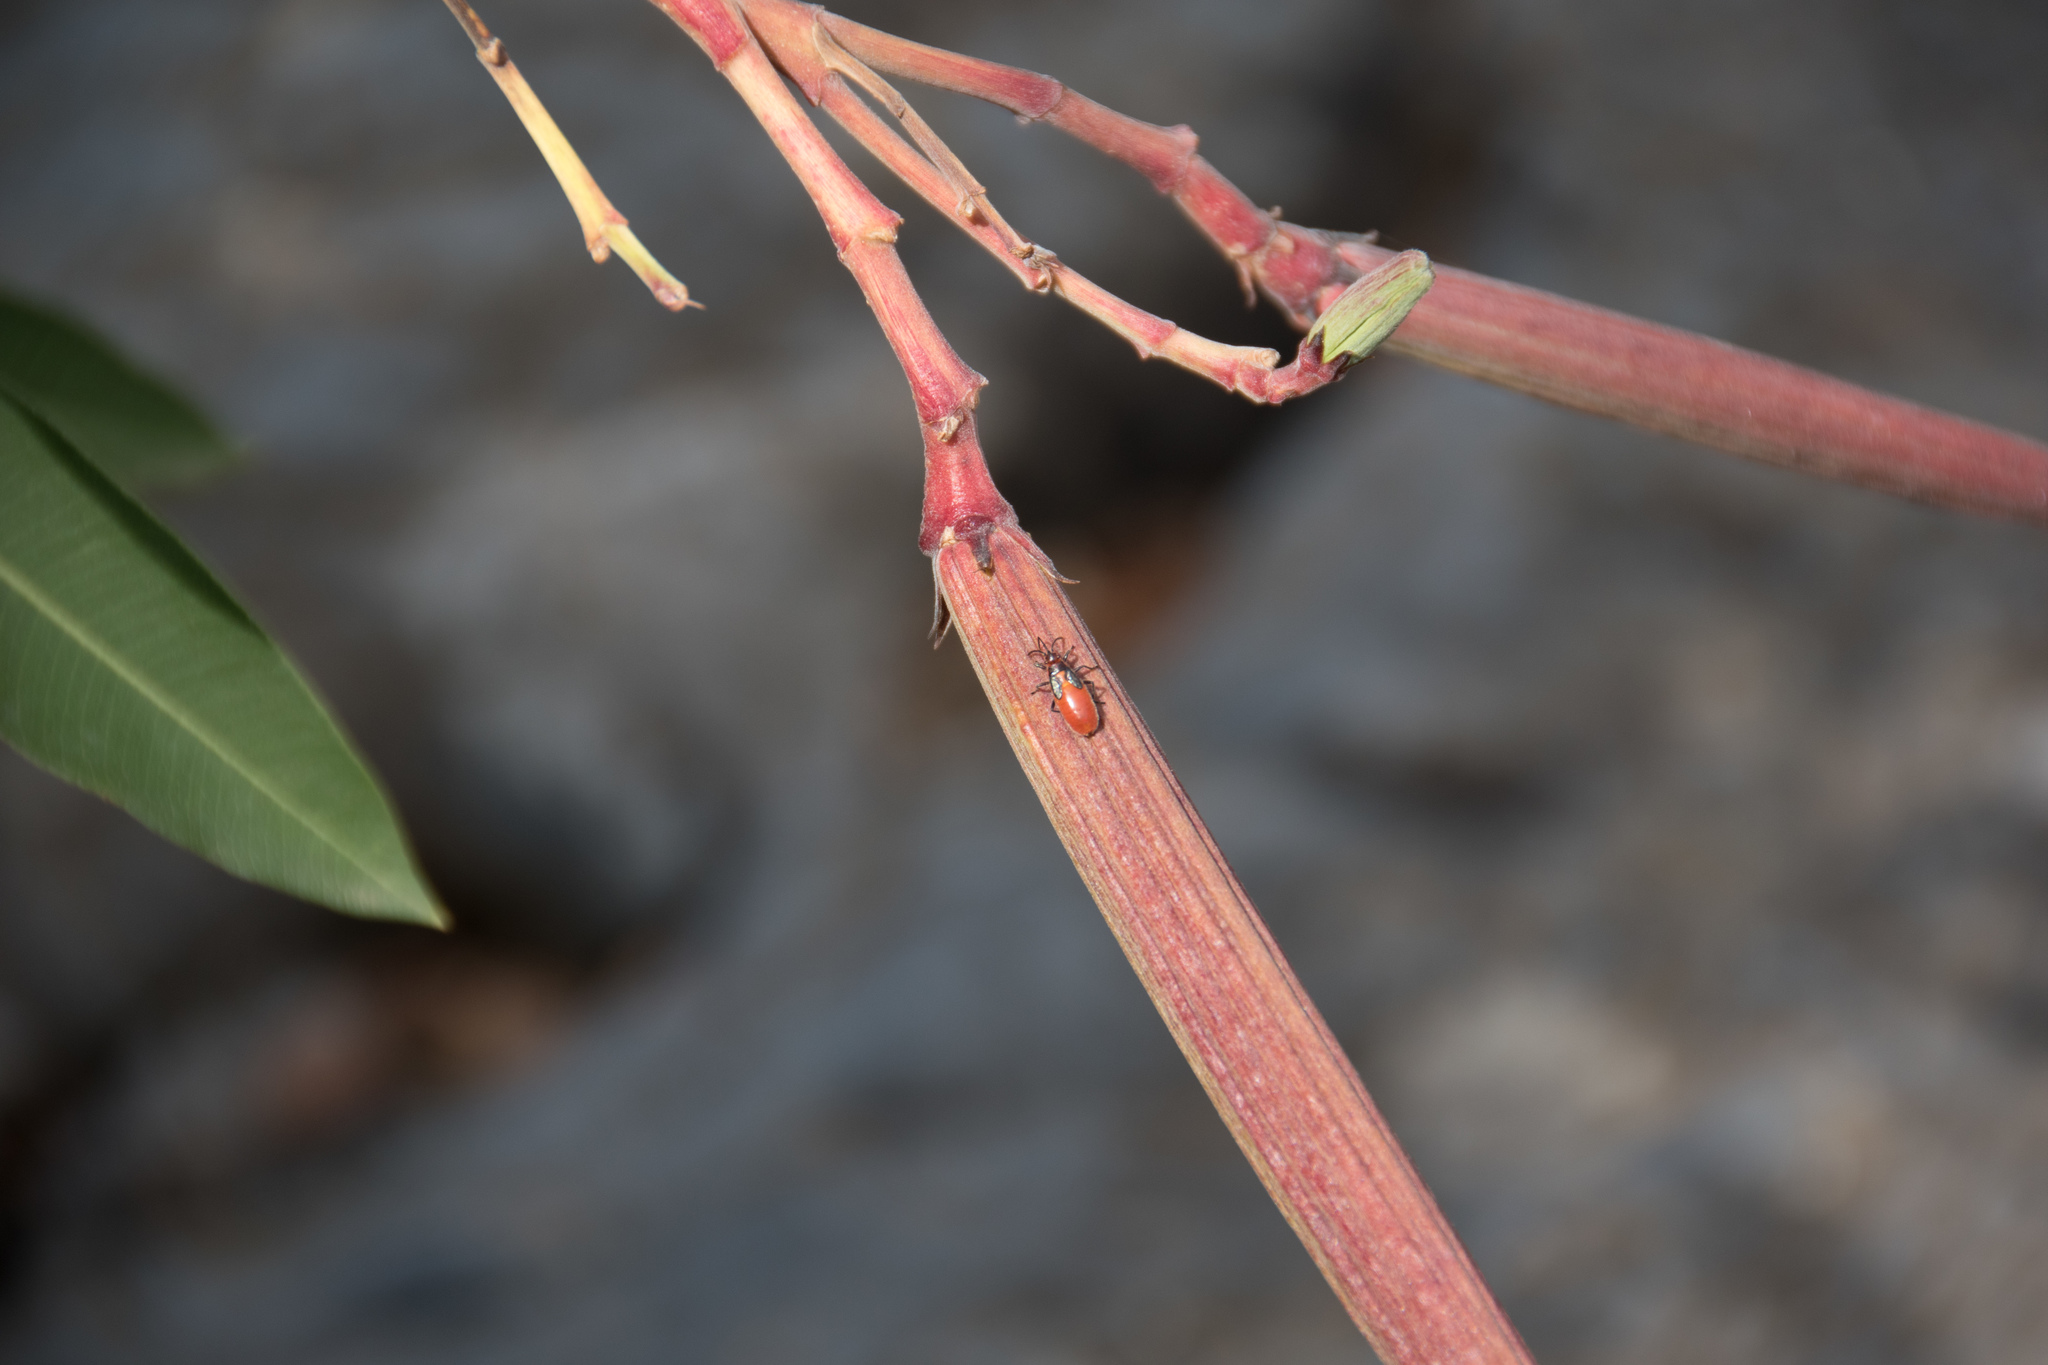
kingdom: Animalia
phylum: Arthropoda
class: Insecta
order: Hemiptera
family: Lygaeidae
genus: Caenocoris
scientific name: Caenocoris nerii
